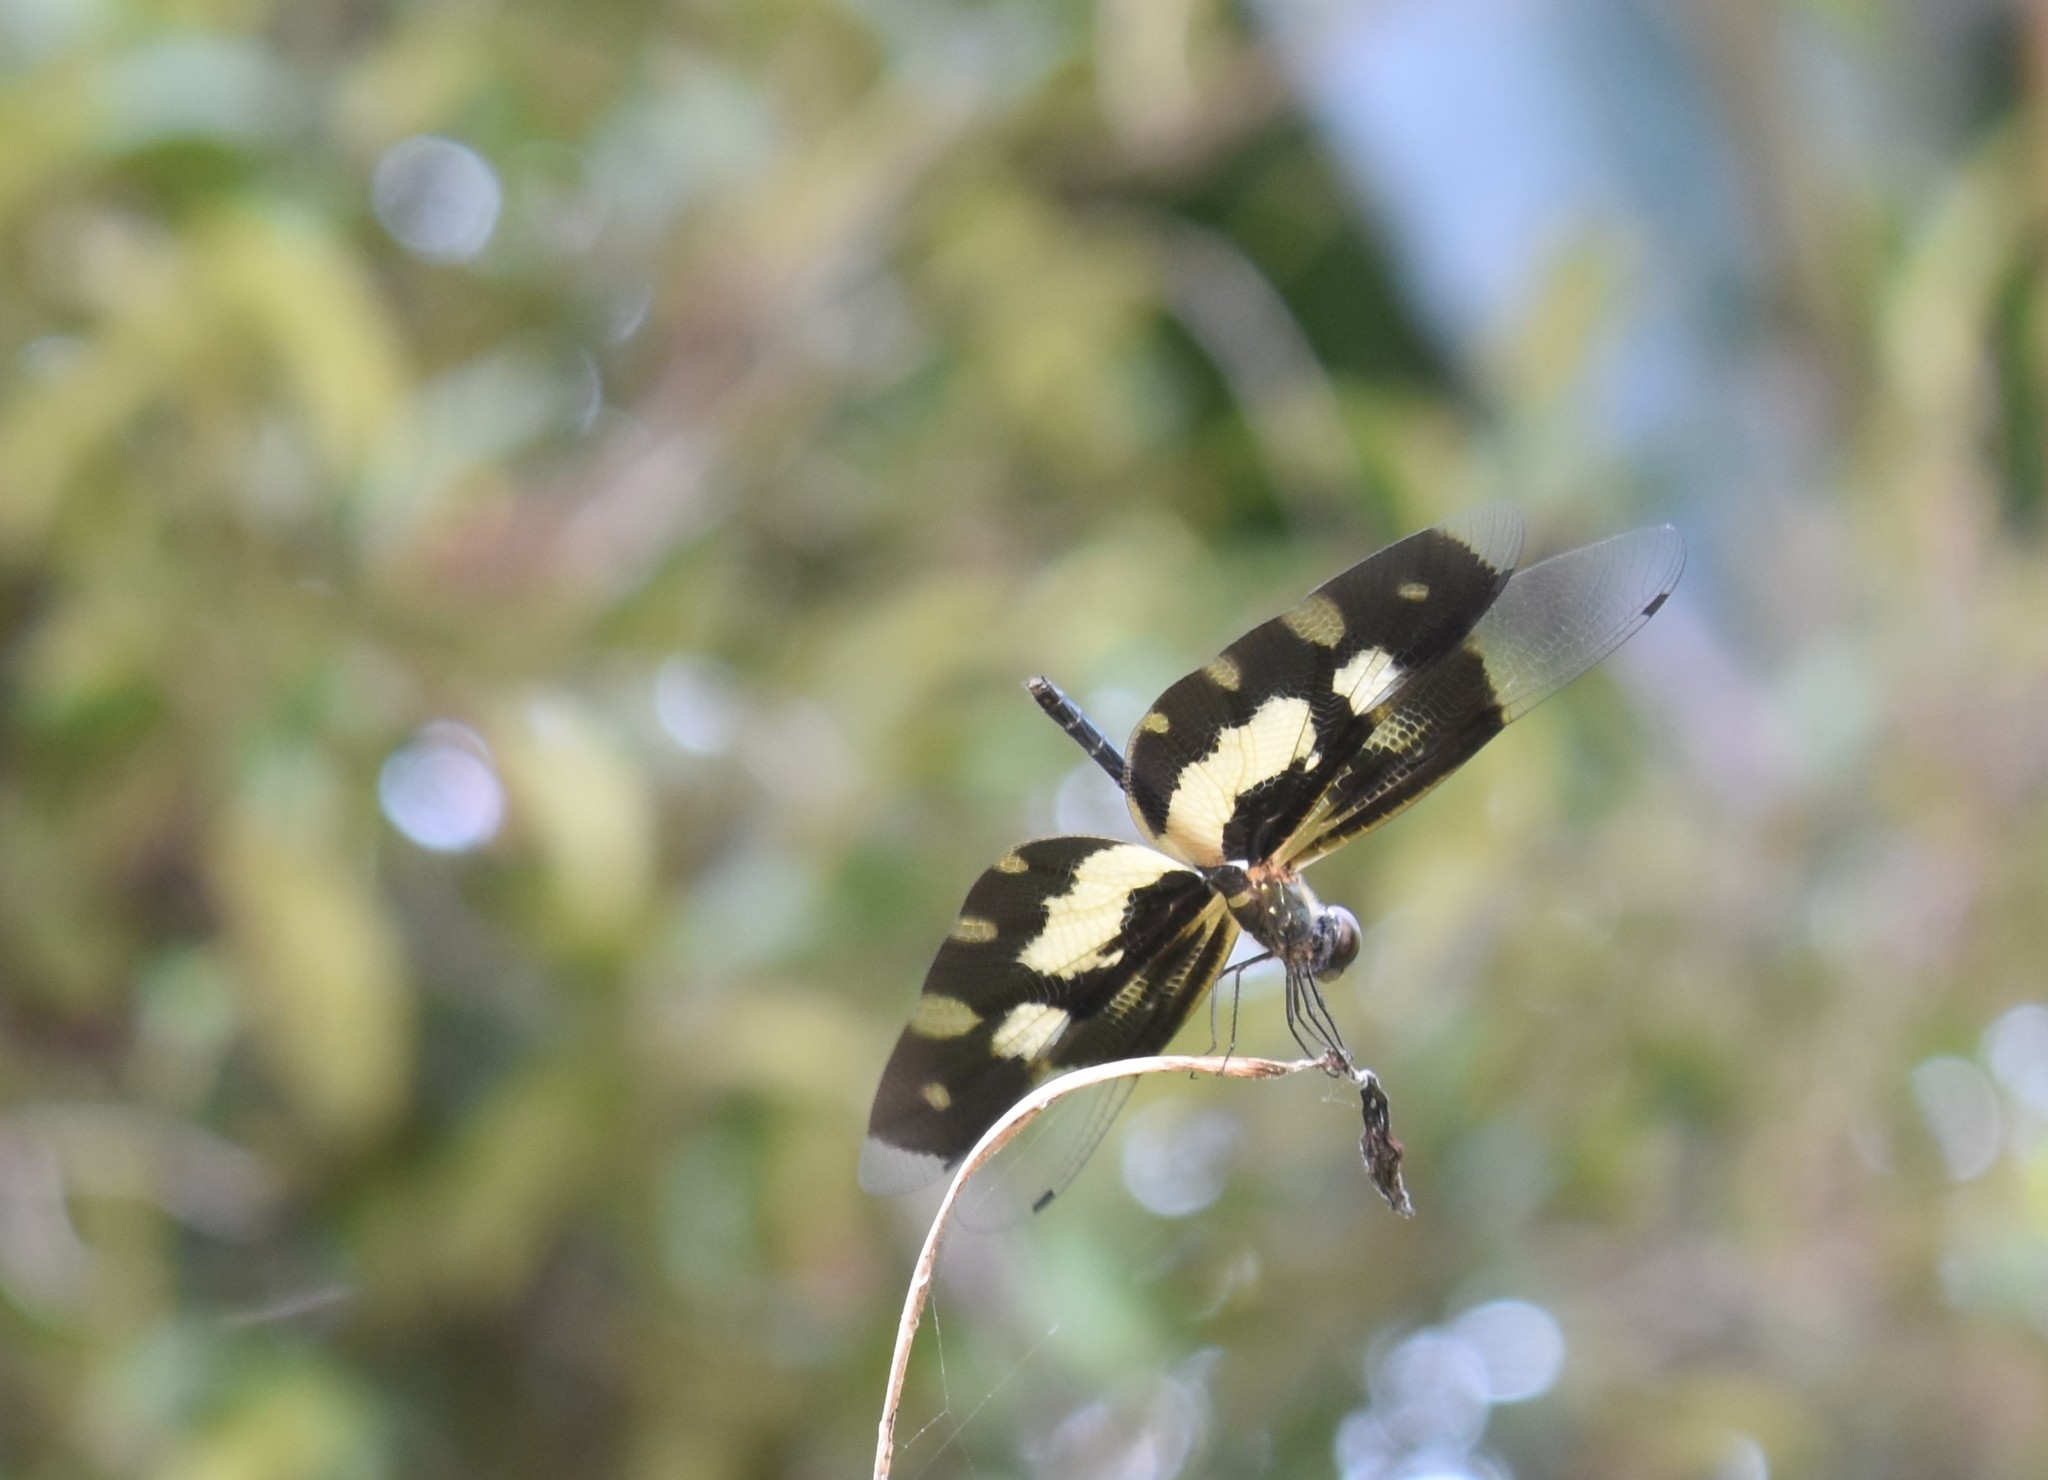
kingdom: Animalia
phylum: Arthropoda
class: Insecta
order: Odonata
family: Libellulidae
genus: Rhyothemis
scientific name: Rhyothemis variegata
